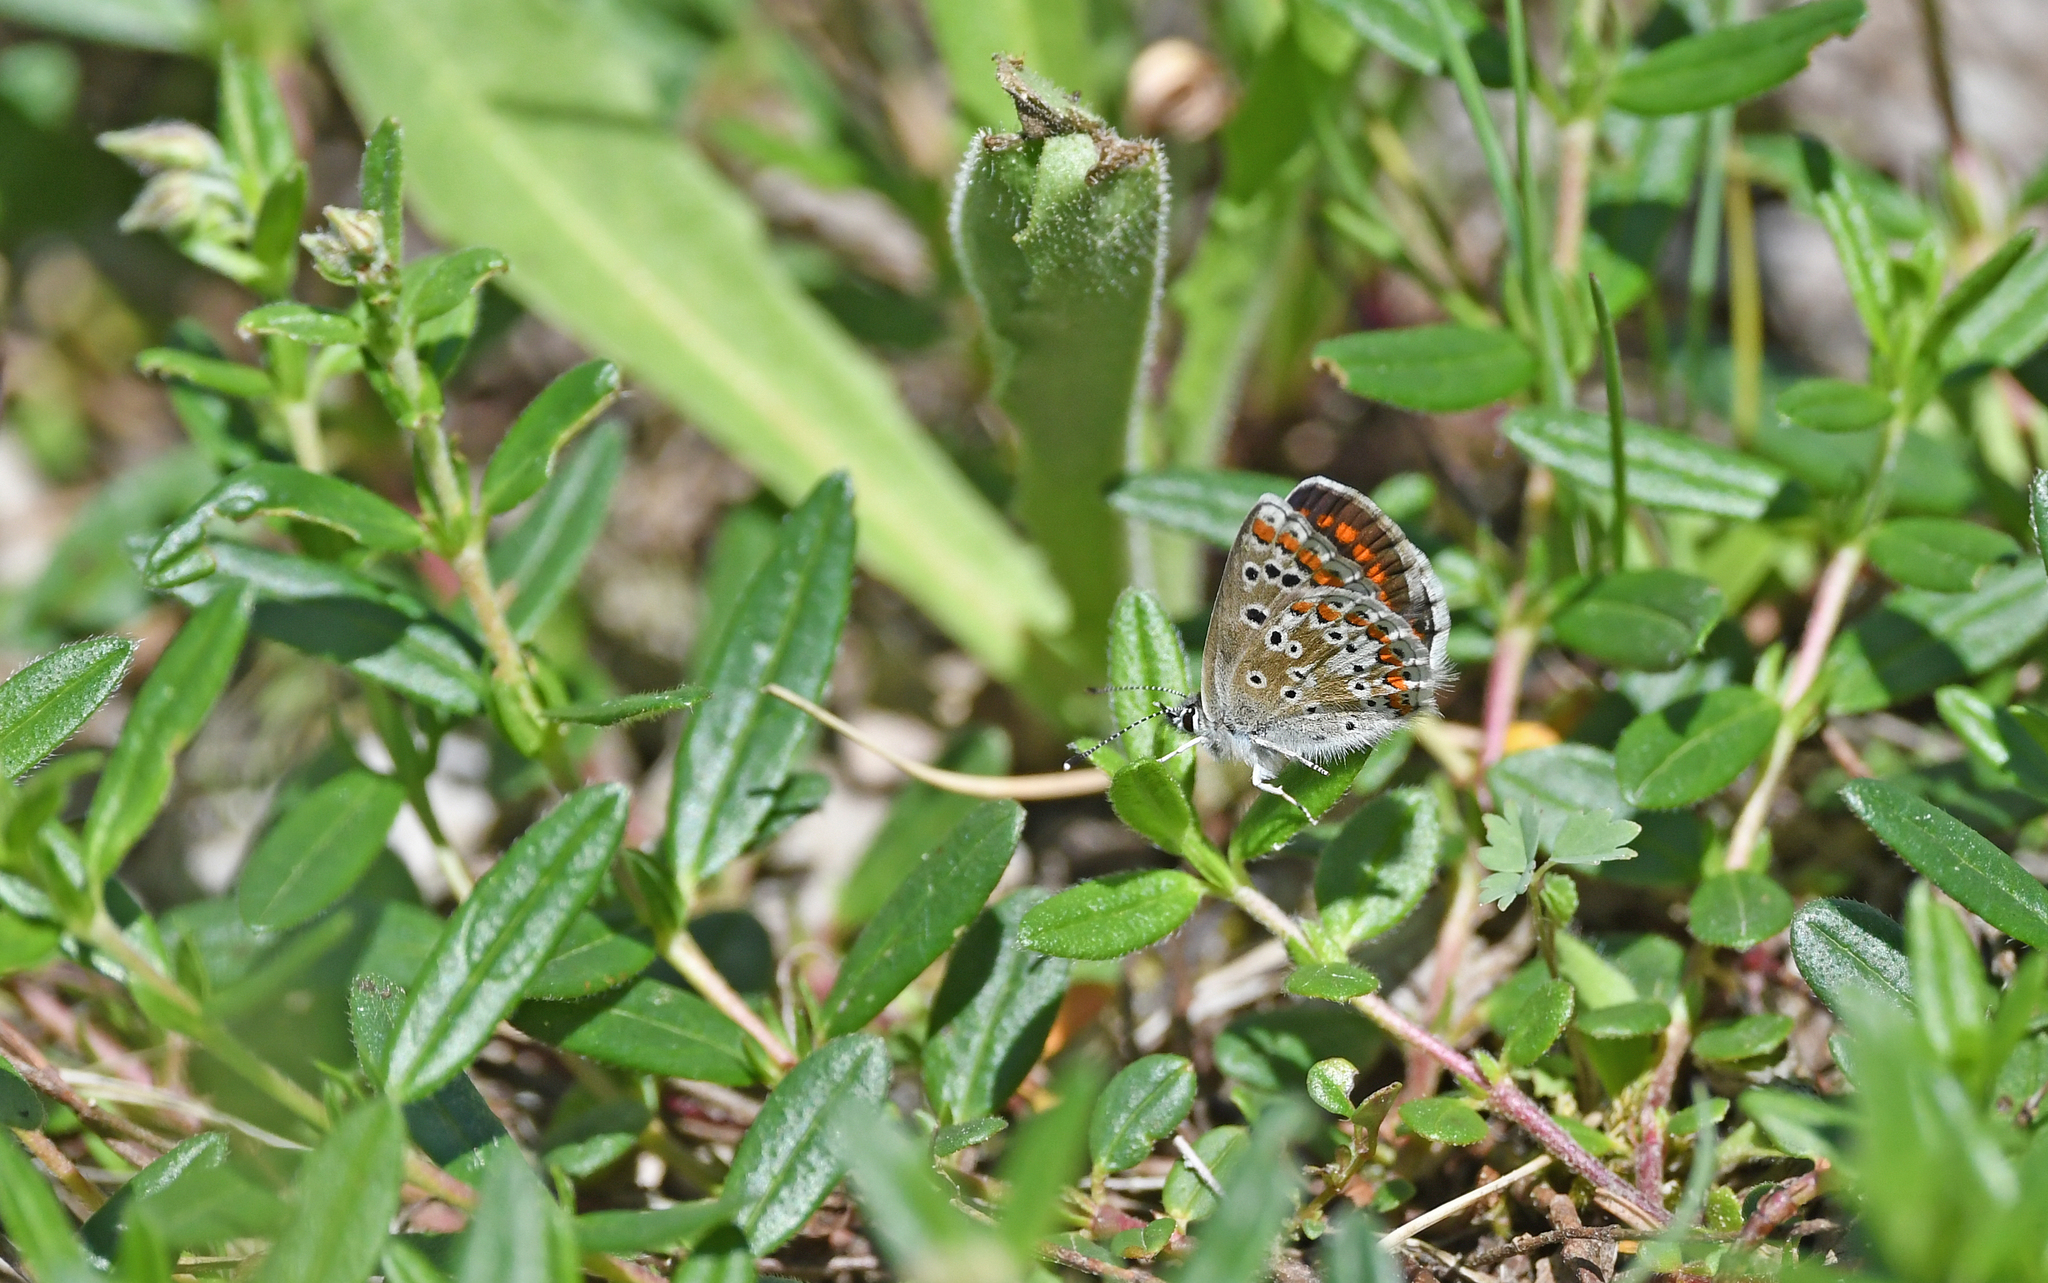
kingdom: Animalia
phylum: Arthropoda
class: Insecta
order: Lepidoptera
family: Lycaenidae
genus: Aricia
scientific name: Aricia agestis
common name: Brown argus
